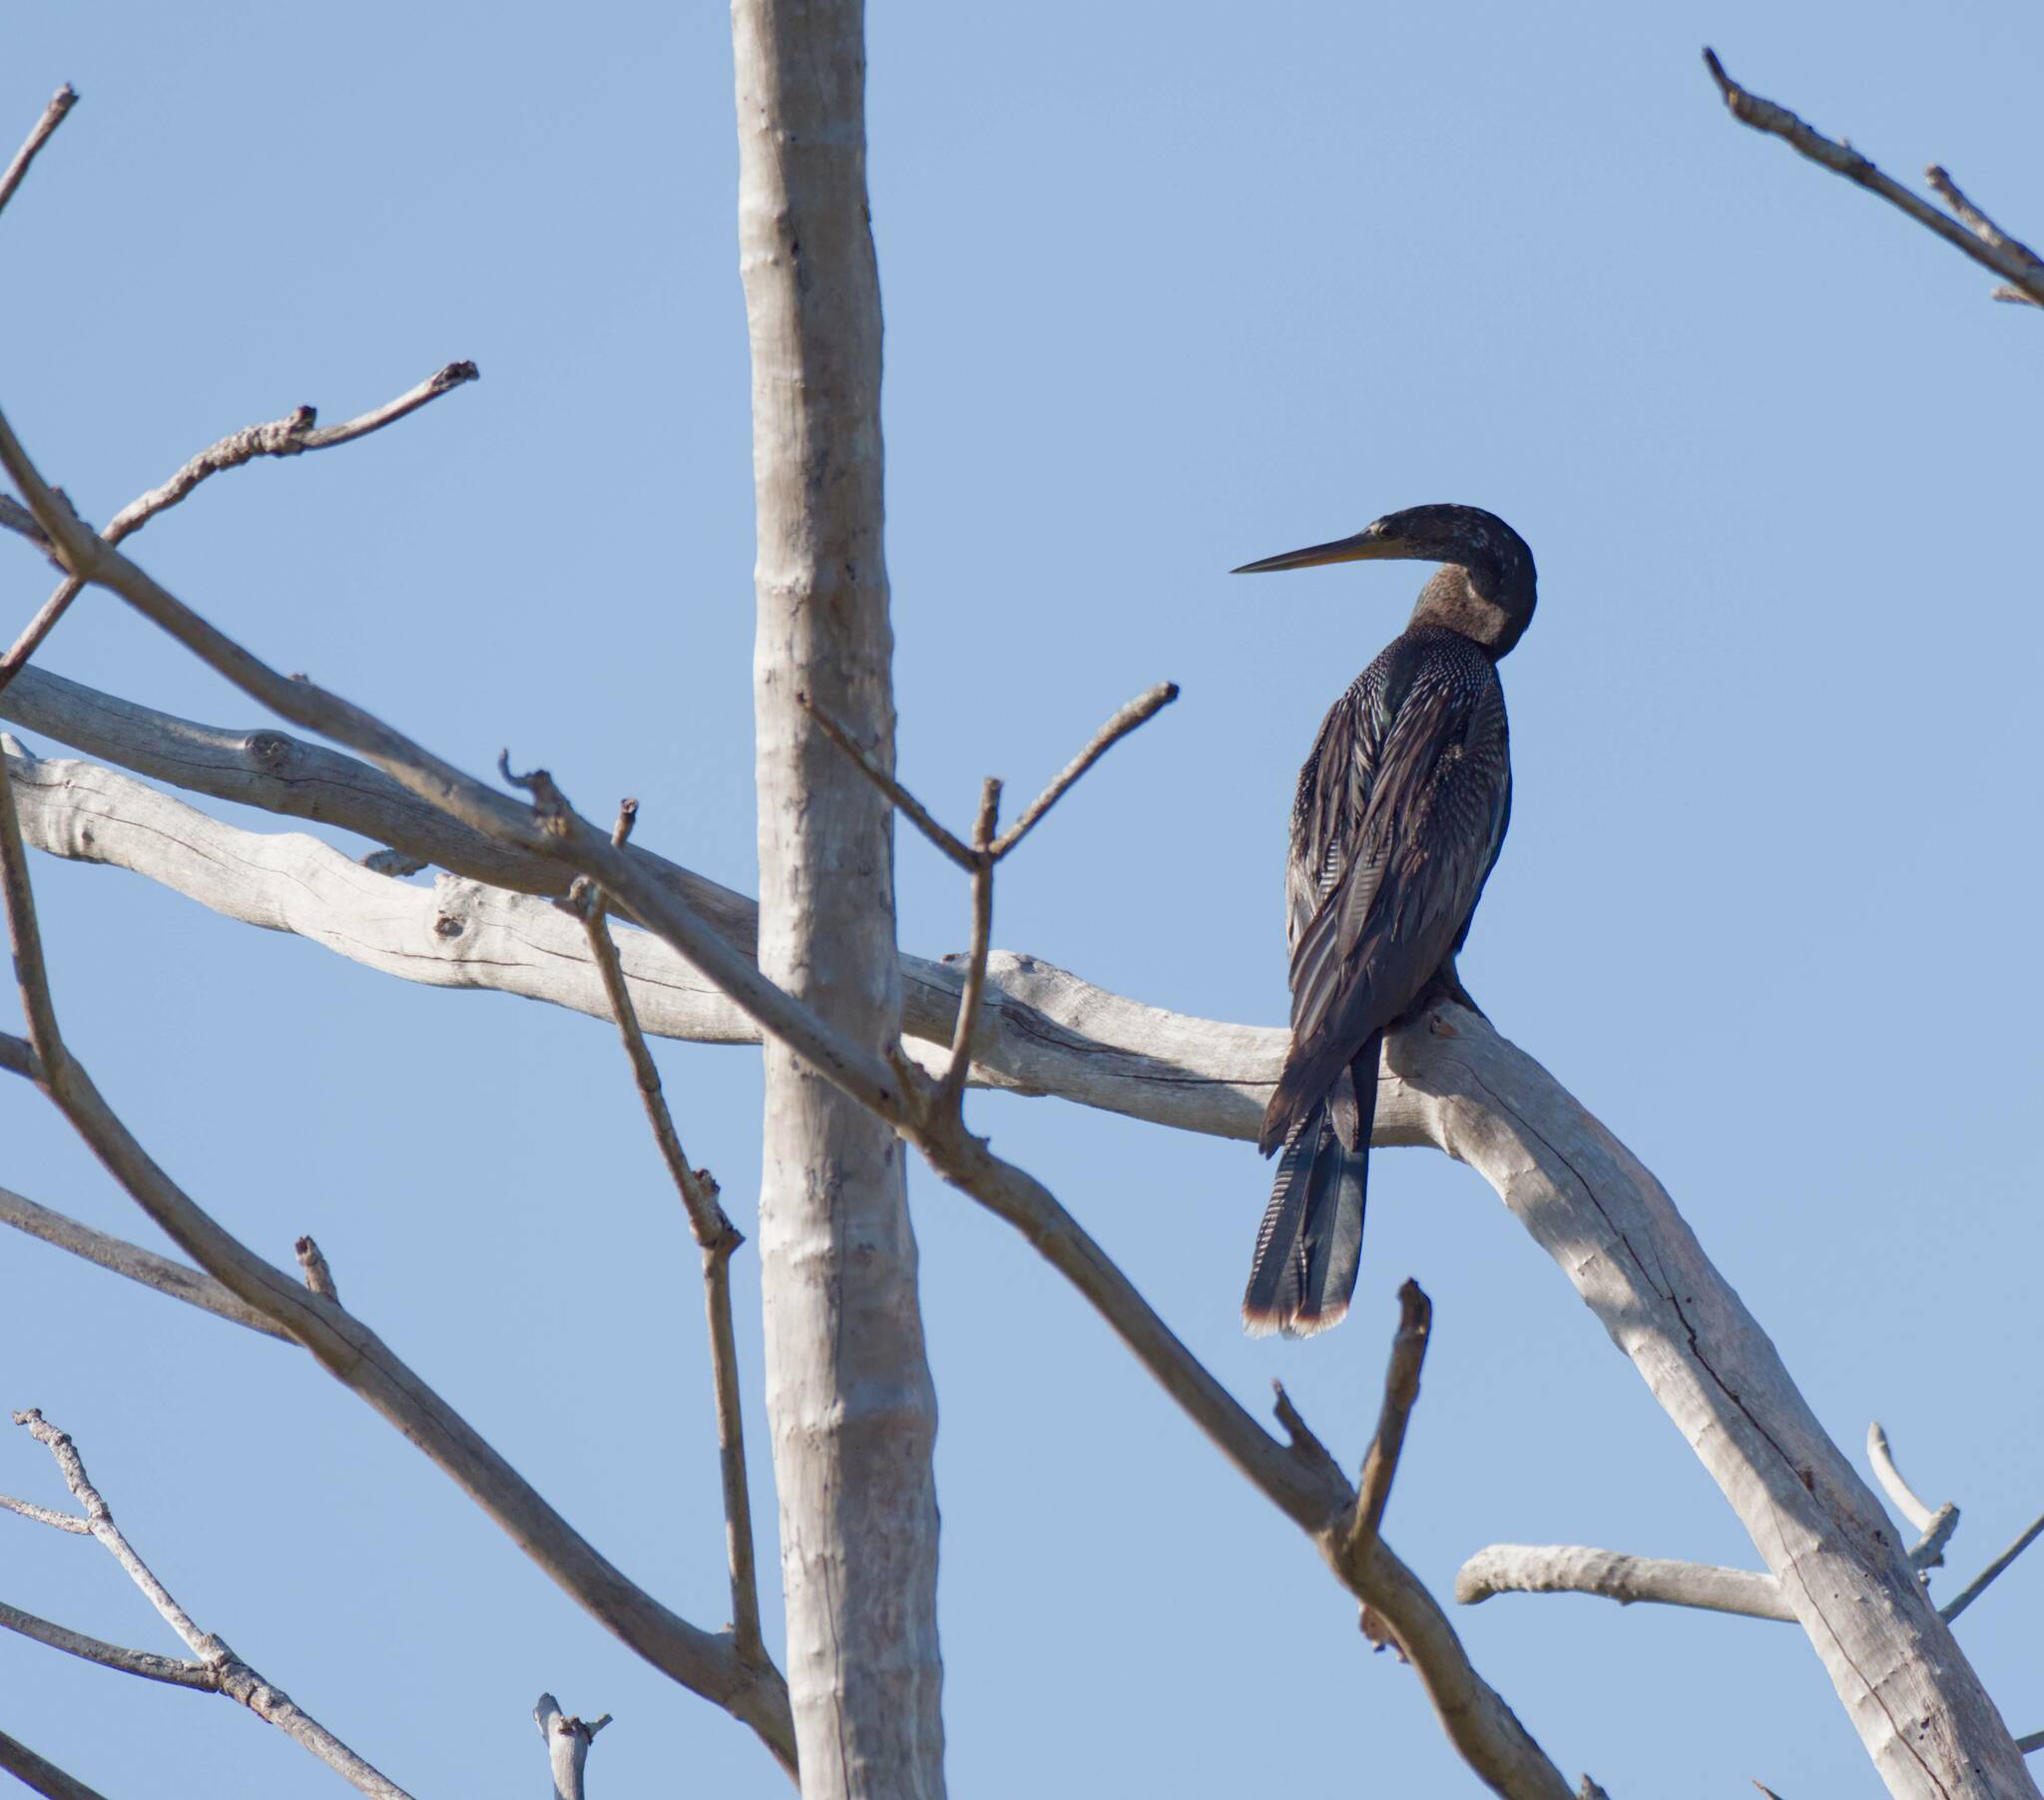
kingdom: Animalia
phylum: Chordata
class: Aves
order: Suliformes
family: Anhingidae
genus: Anhinga
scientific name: Anhinga anhinga
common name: Anhinga
